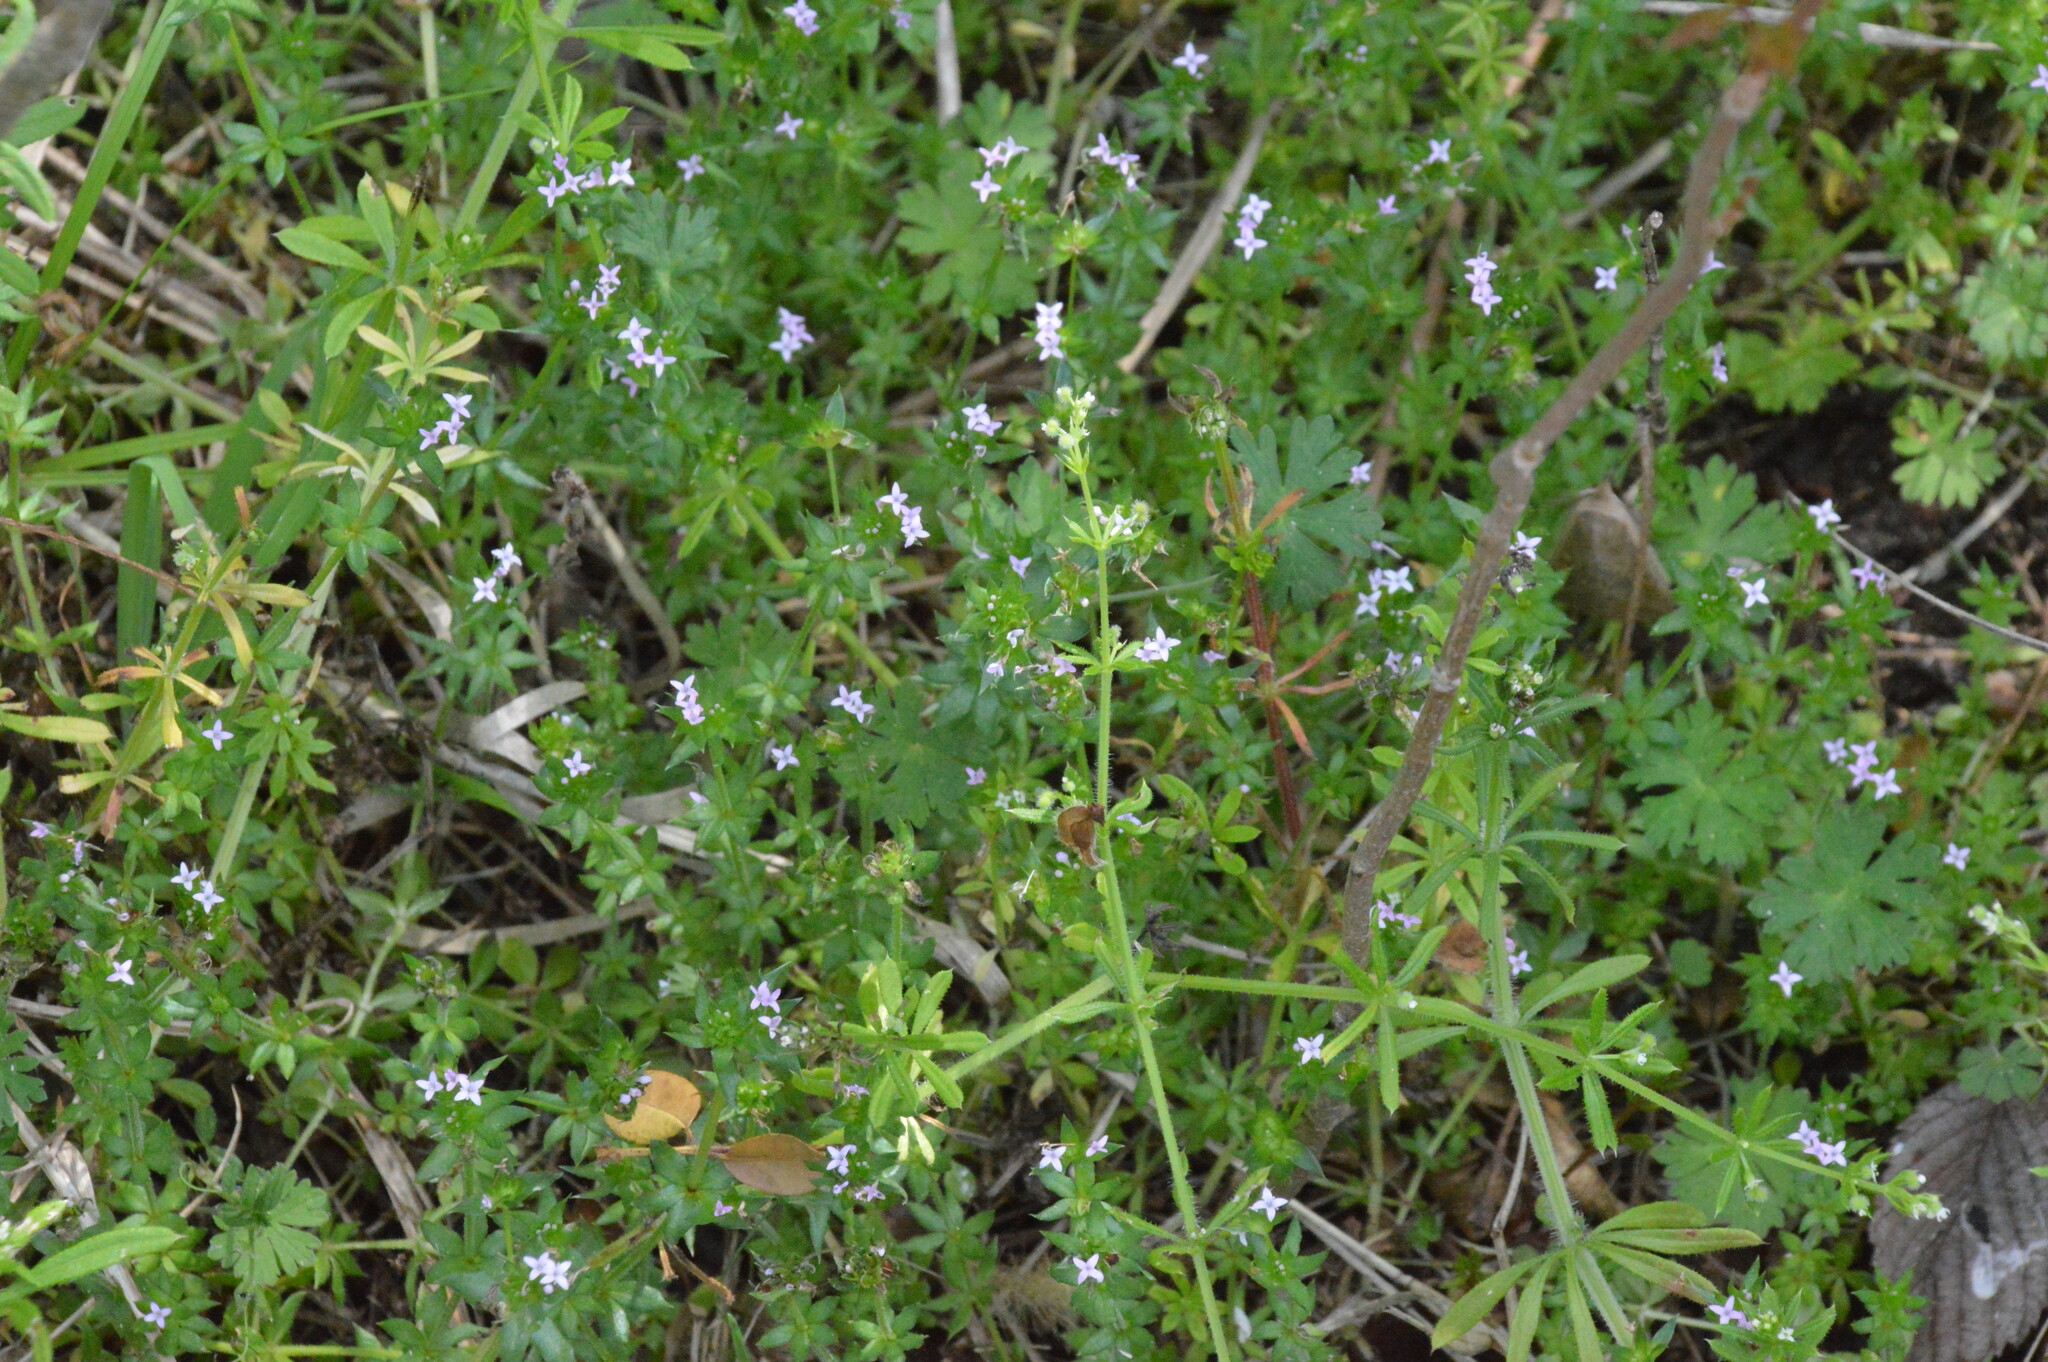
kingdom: Plantae
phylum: Tracheophyta
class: Magnoliopsida
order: Gentianales
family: Rubiaceae
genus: Sherardia
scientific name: Sherardia arvensis
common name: Field madder
